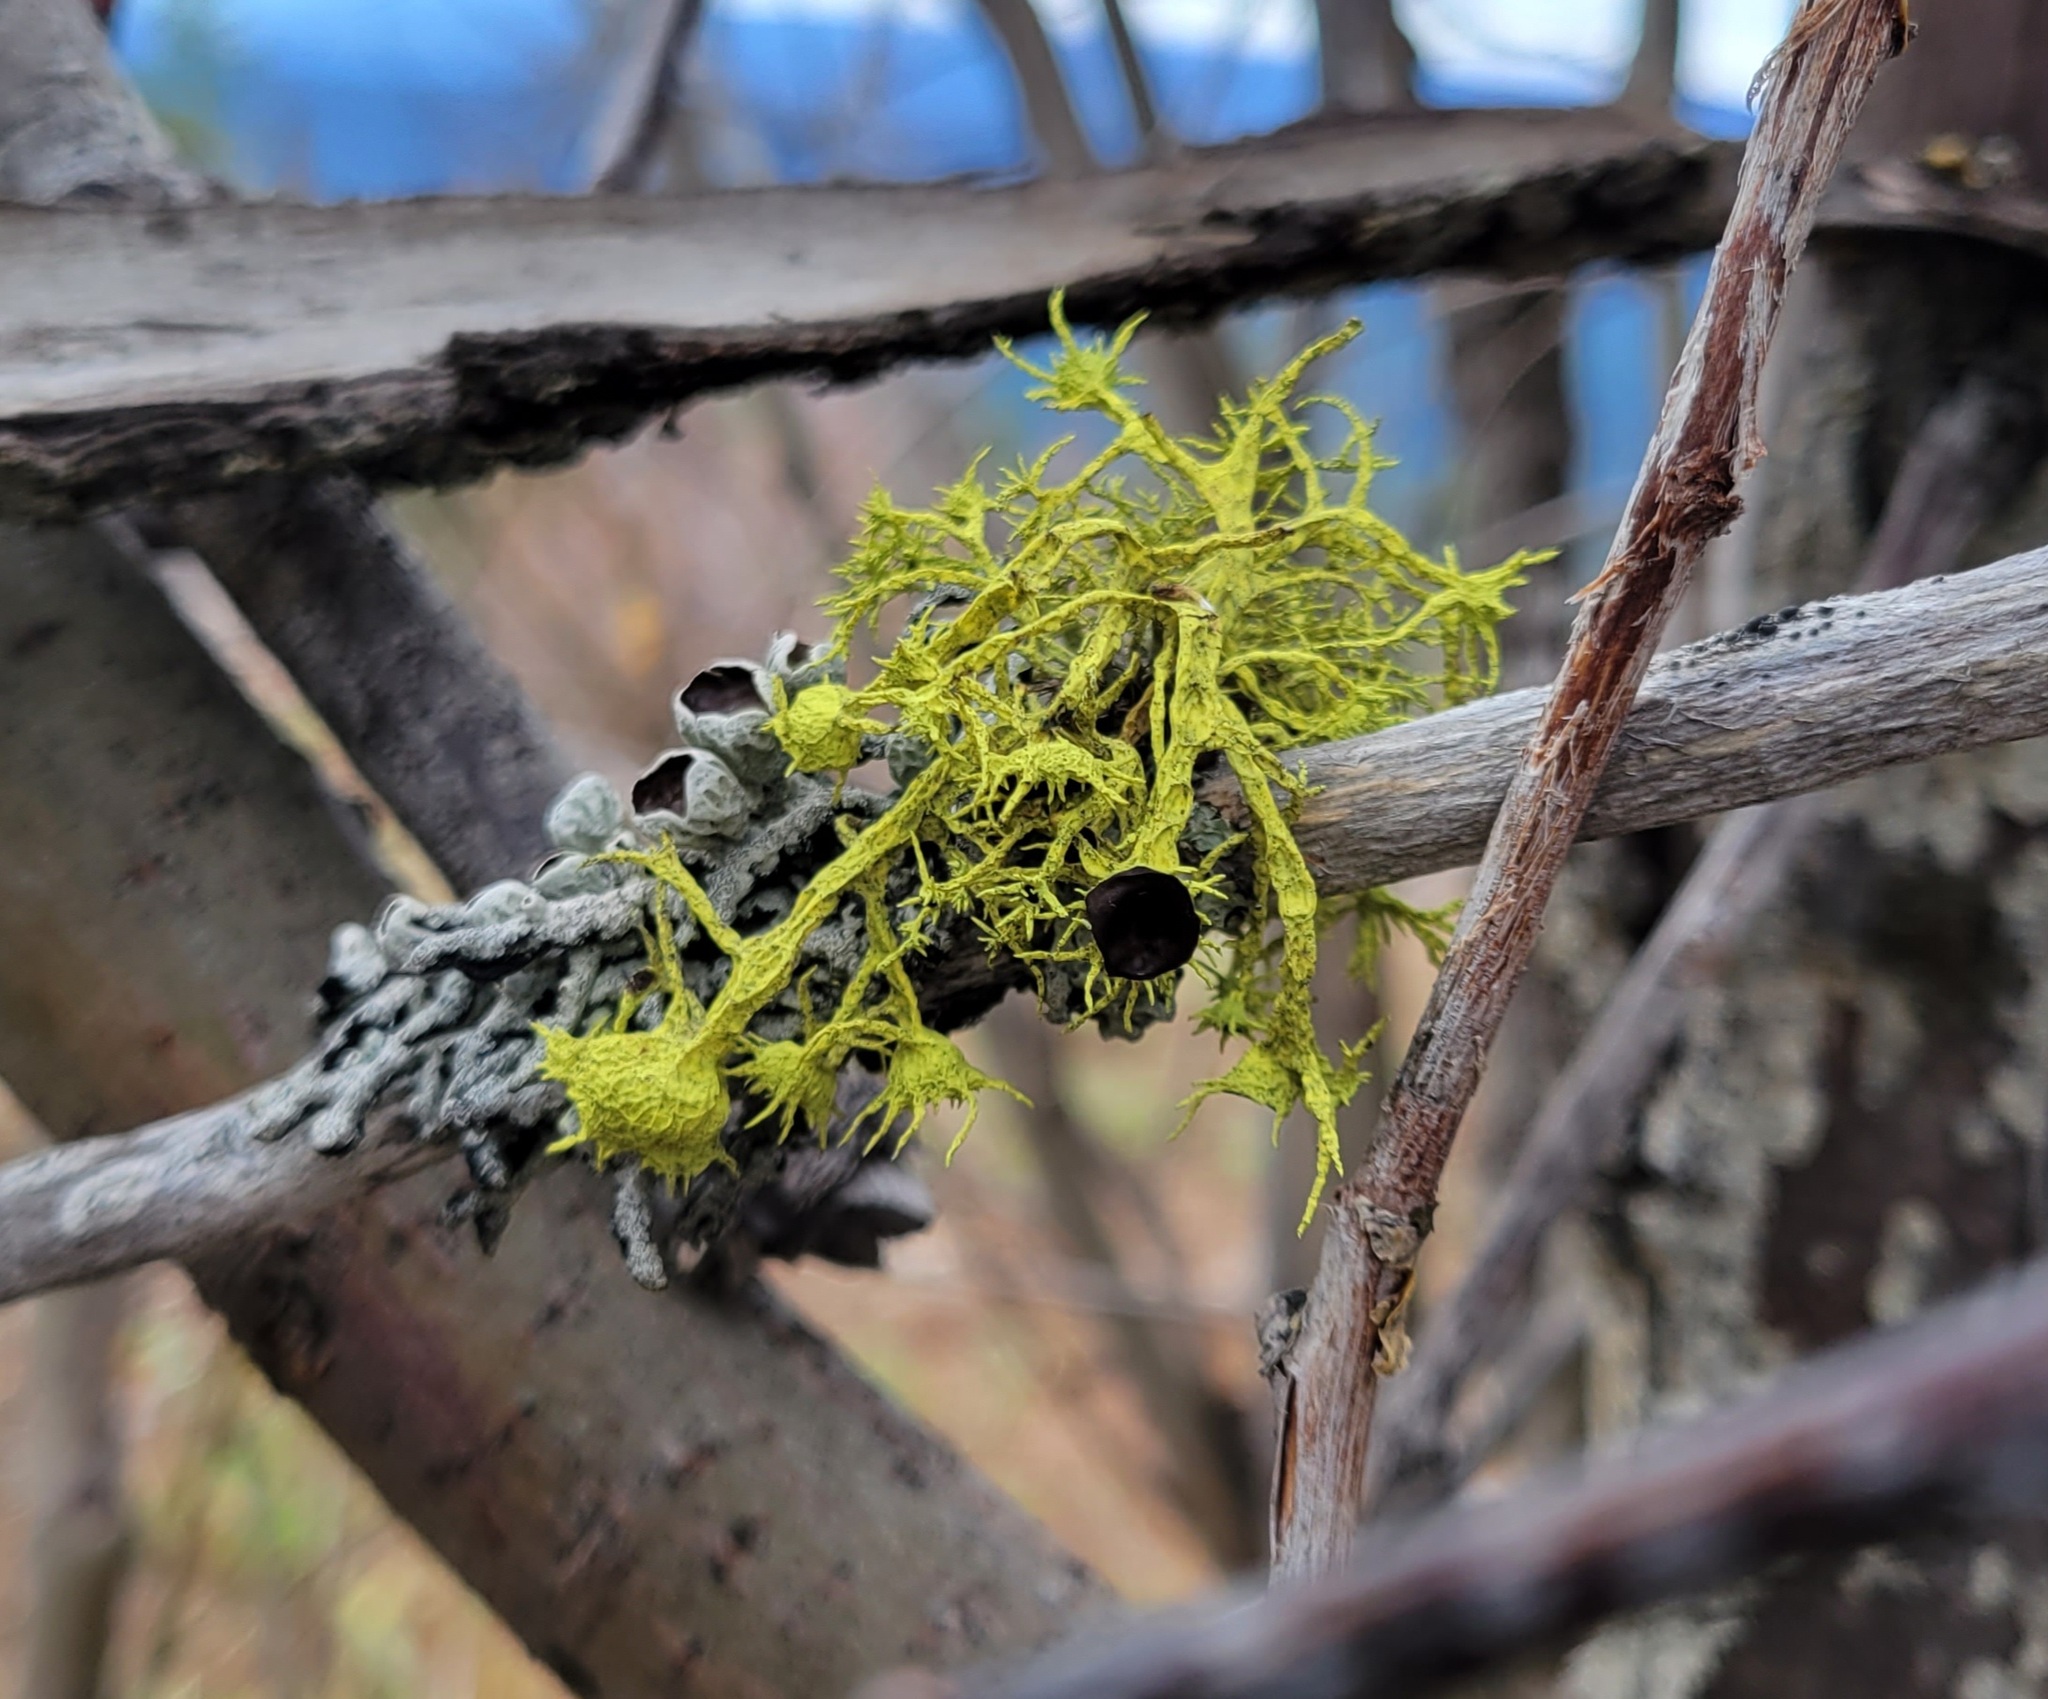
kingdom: Fungi
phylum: Ascomycota
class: Lecanoromycetes
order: Lecanorales
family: Parmeliaceae
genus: Letharia
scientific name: Letharia columbiana
